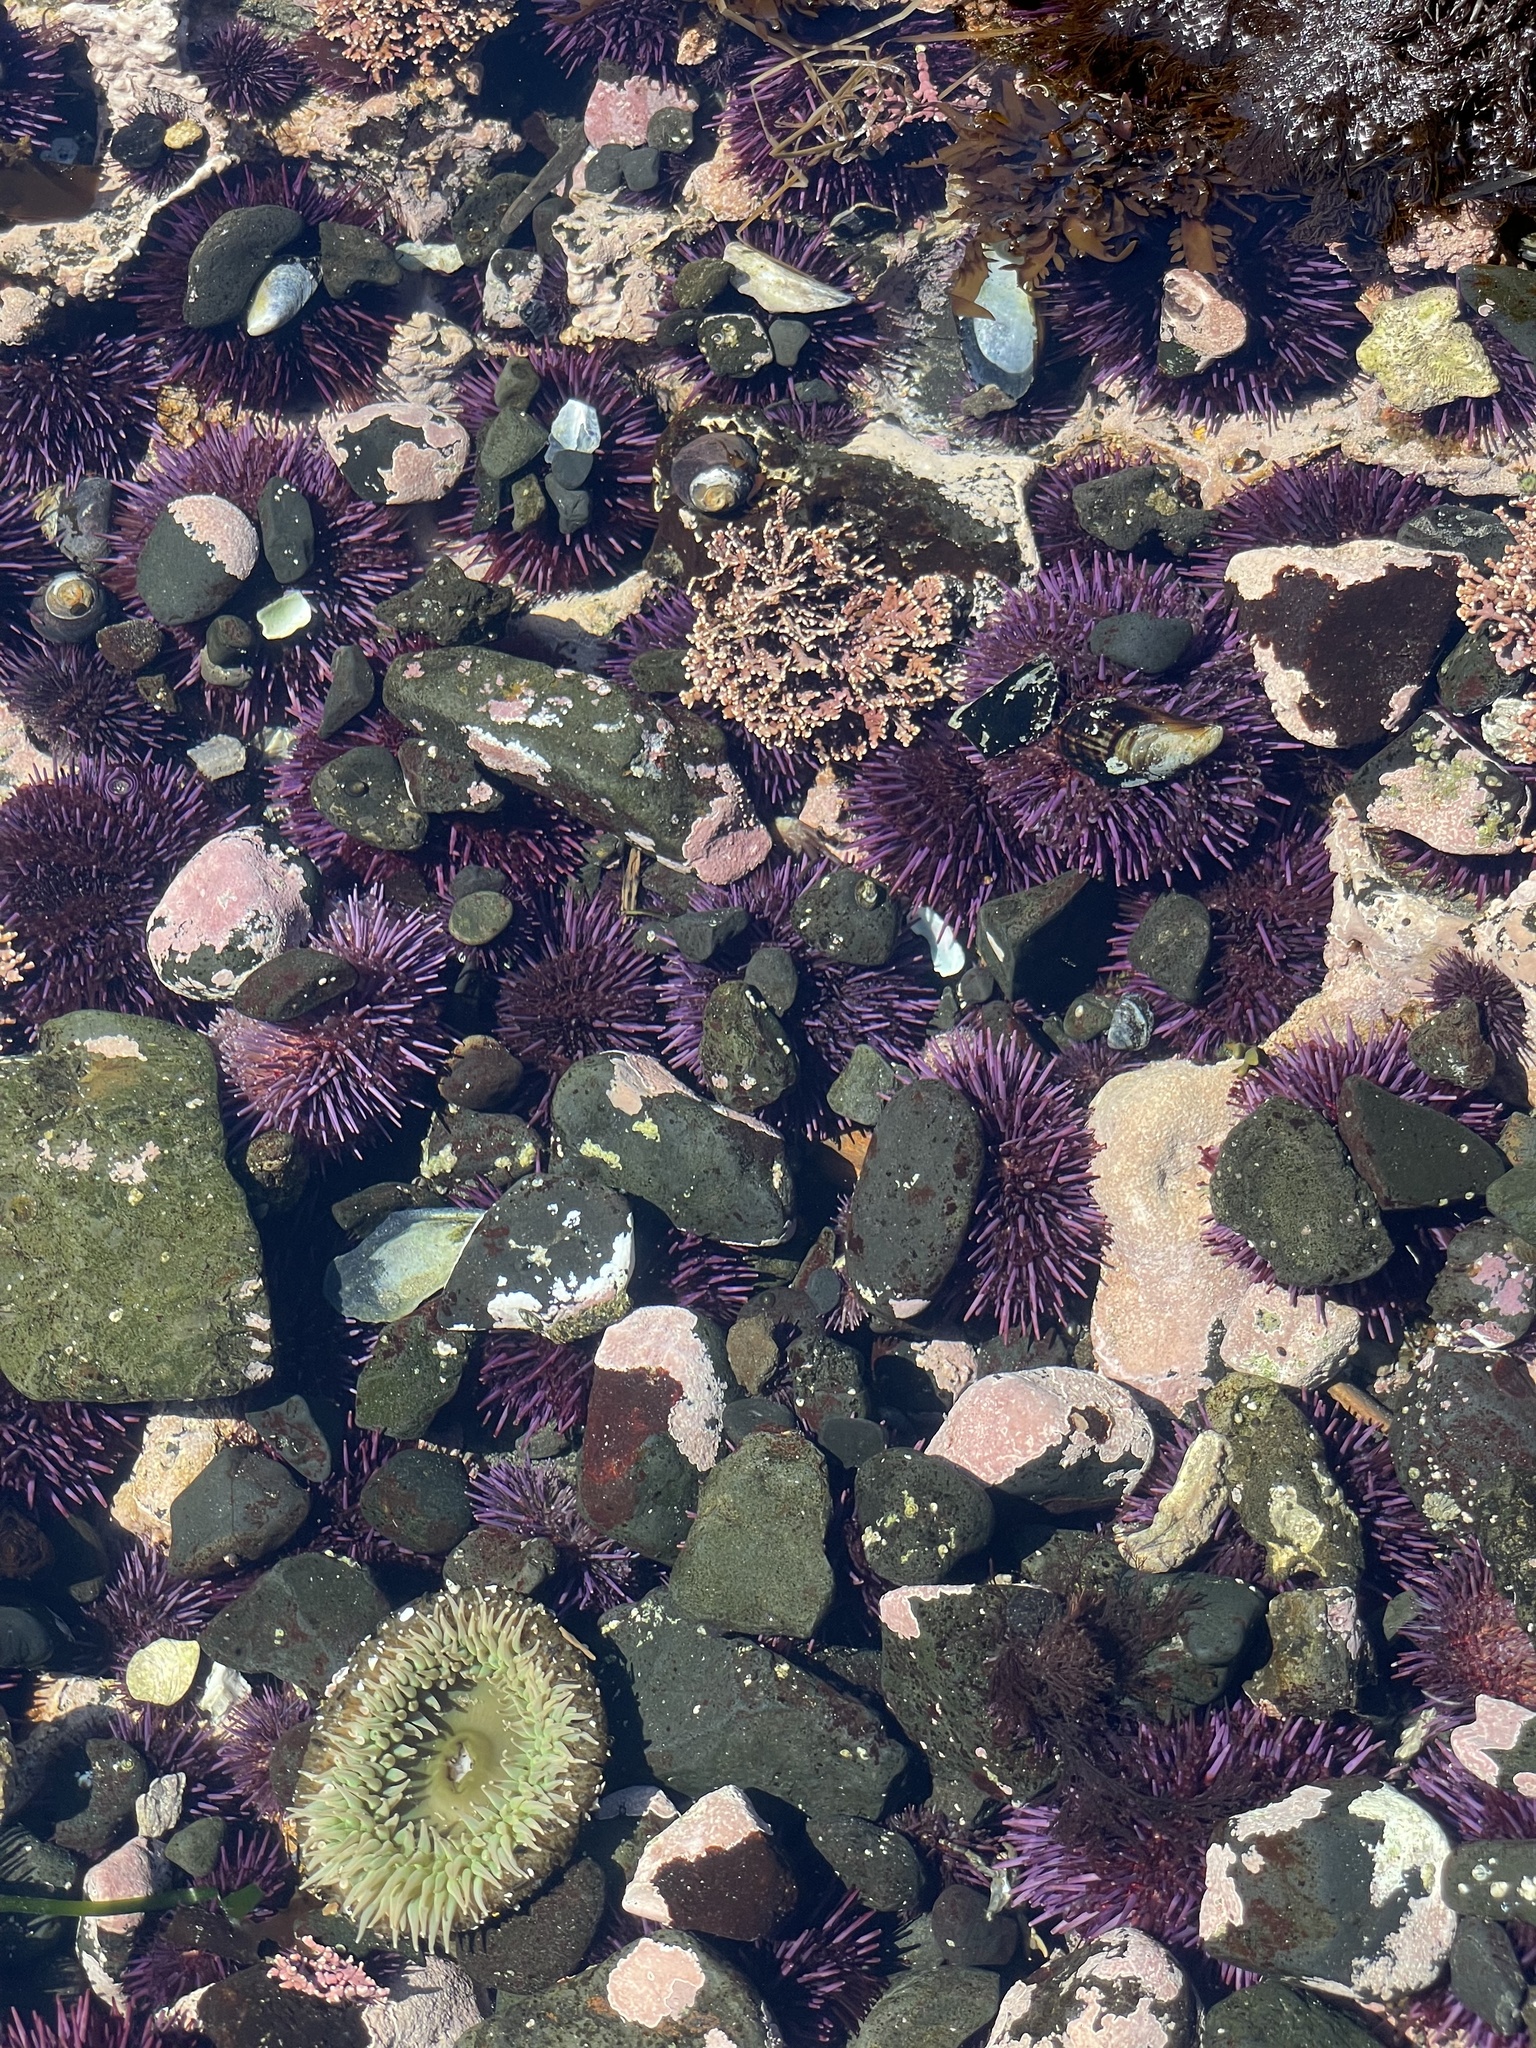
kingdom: Animalia
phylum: Echinodermata
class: Echinoidea
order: Camarodonta
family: Strongylocentrotidae
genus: Strongylocentrotus
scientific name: Strongylocentrotus purpuratus
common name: Purple sea urchin
